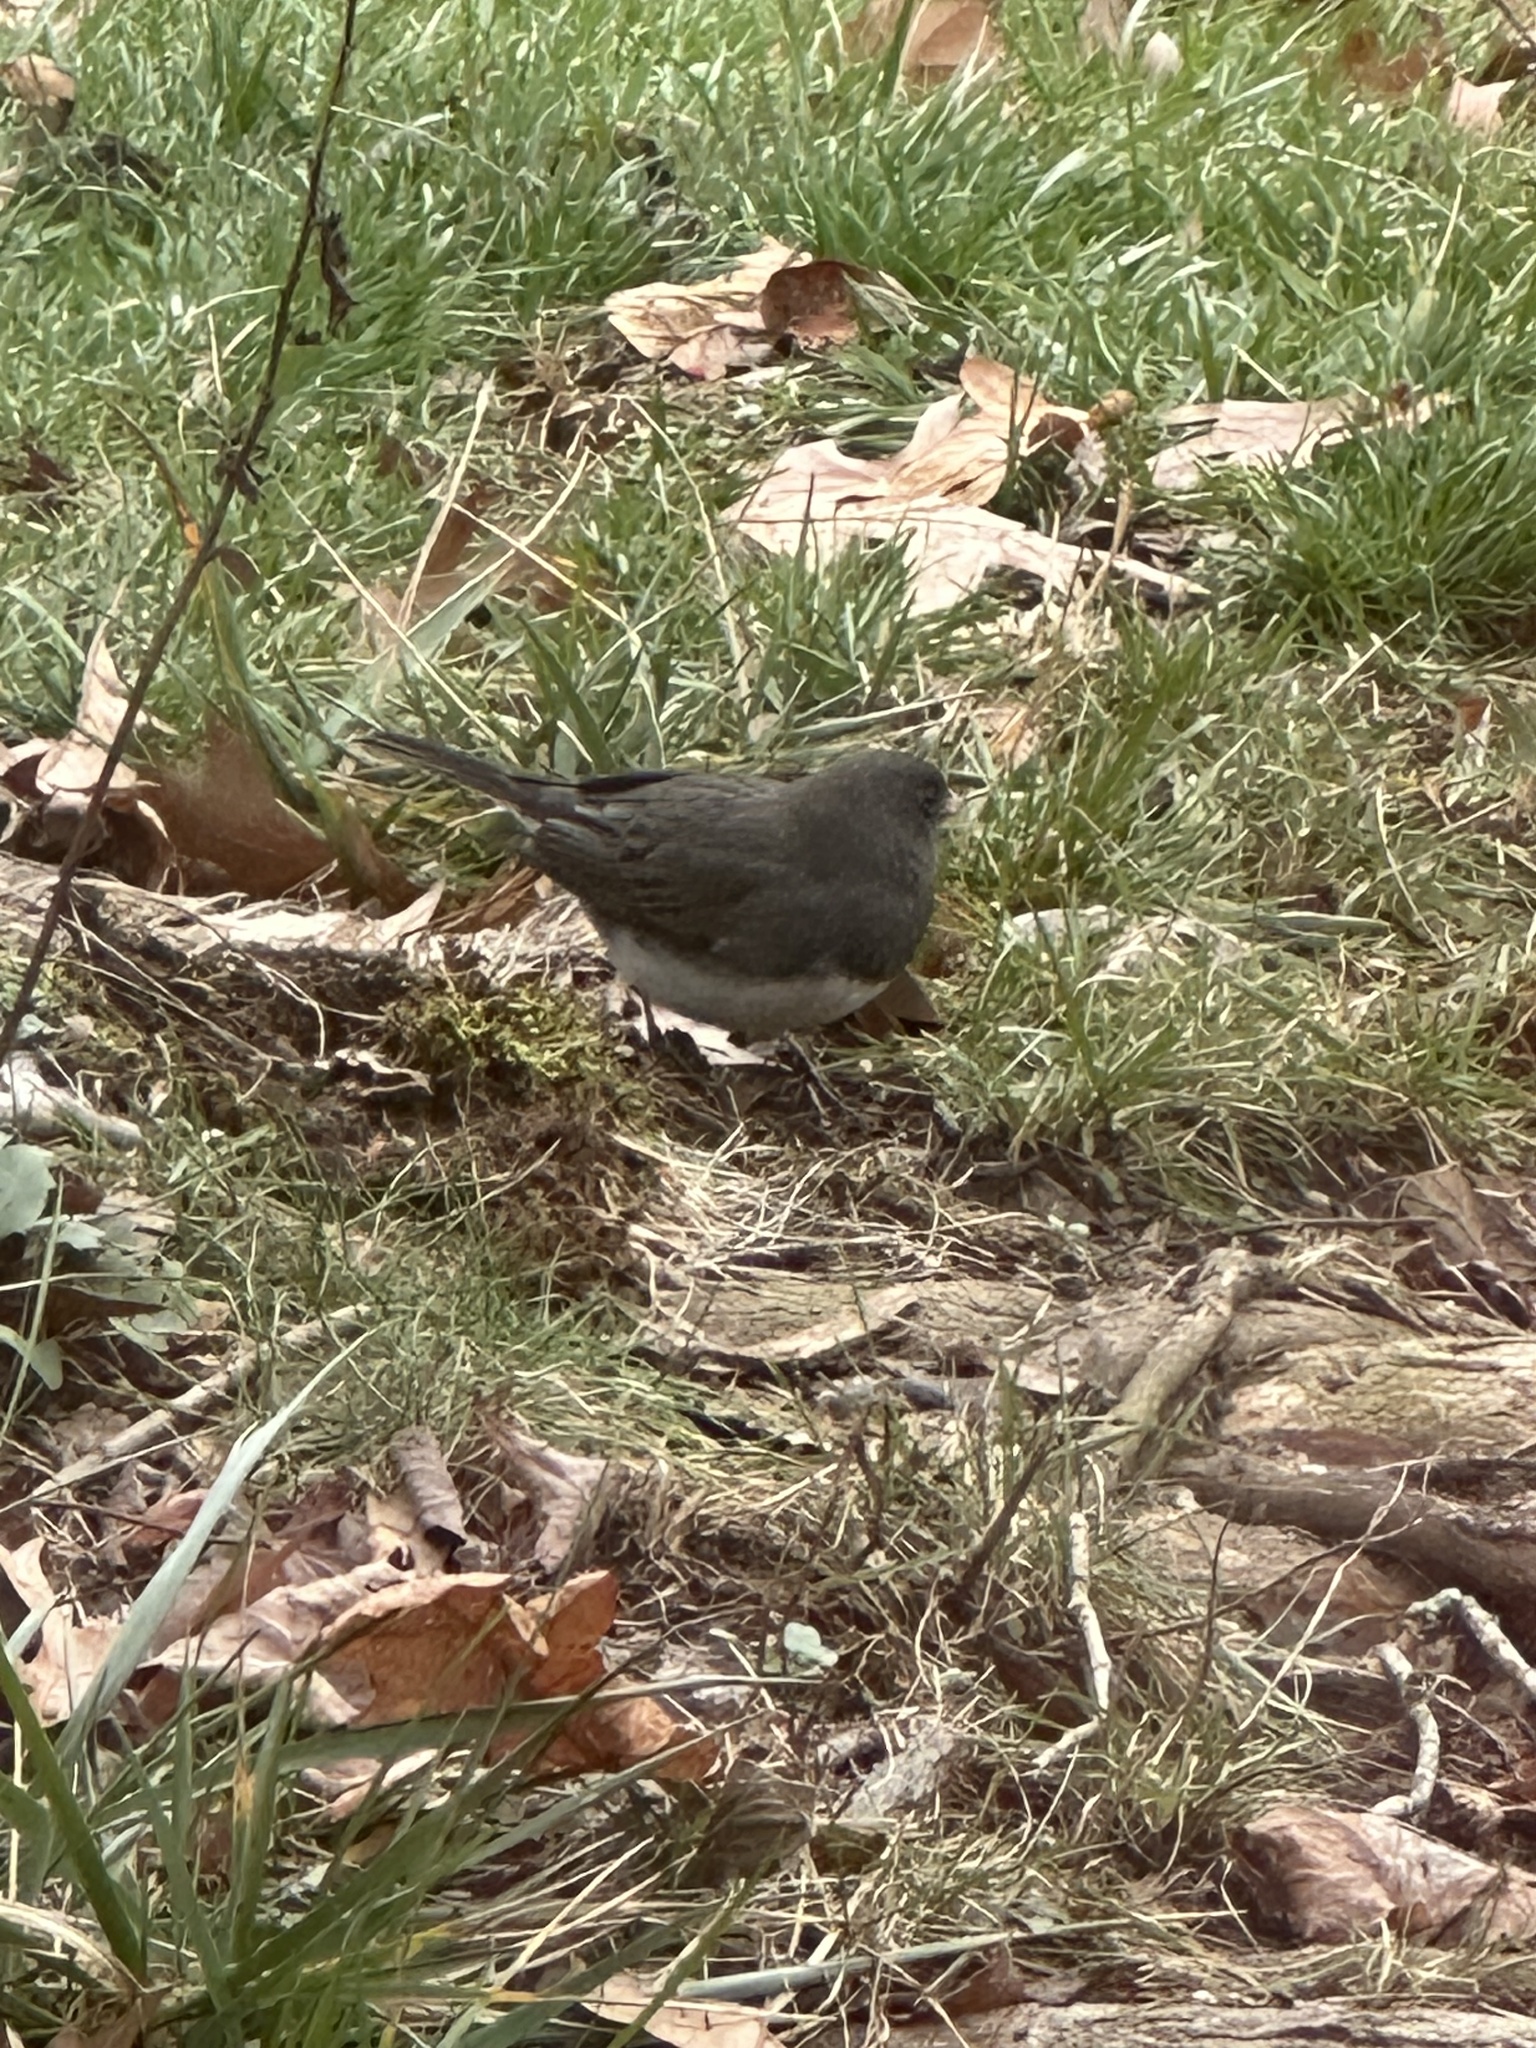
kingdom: Animalia
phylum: Chordata
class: Aves
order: Passeriformes
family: Passerellidae
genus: Junco
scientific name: Junco hyemalis
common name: Dark-eyed junco
